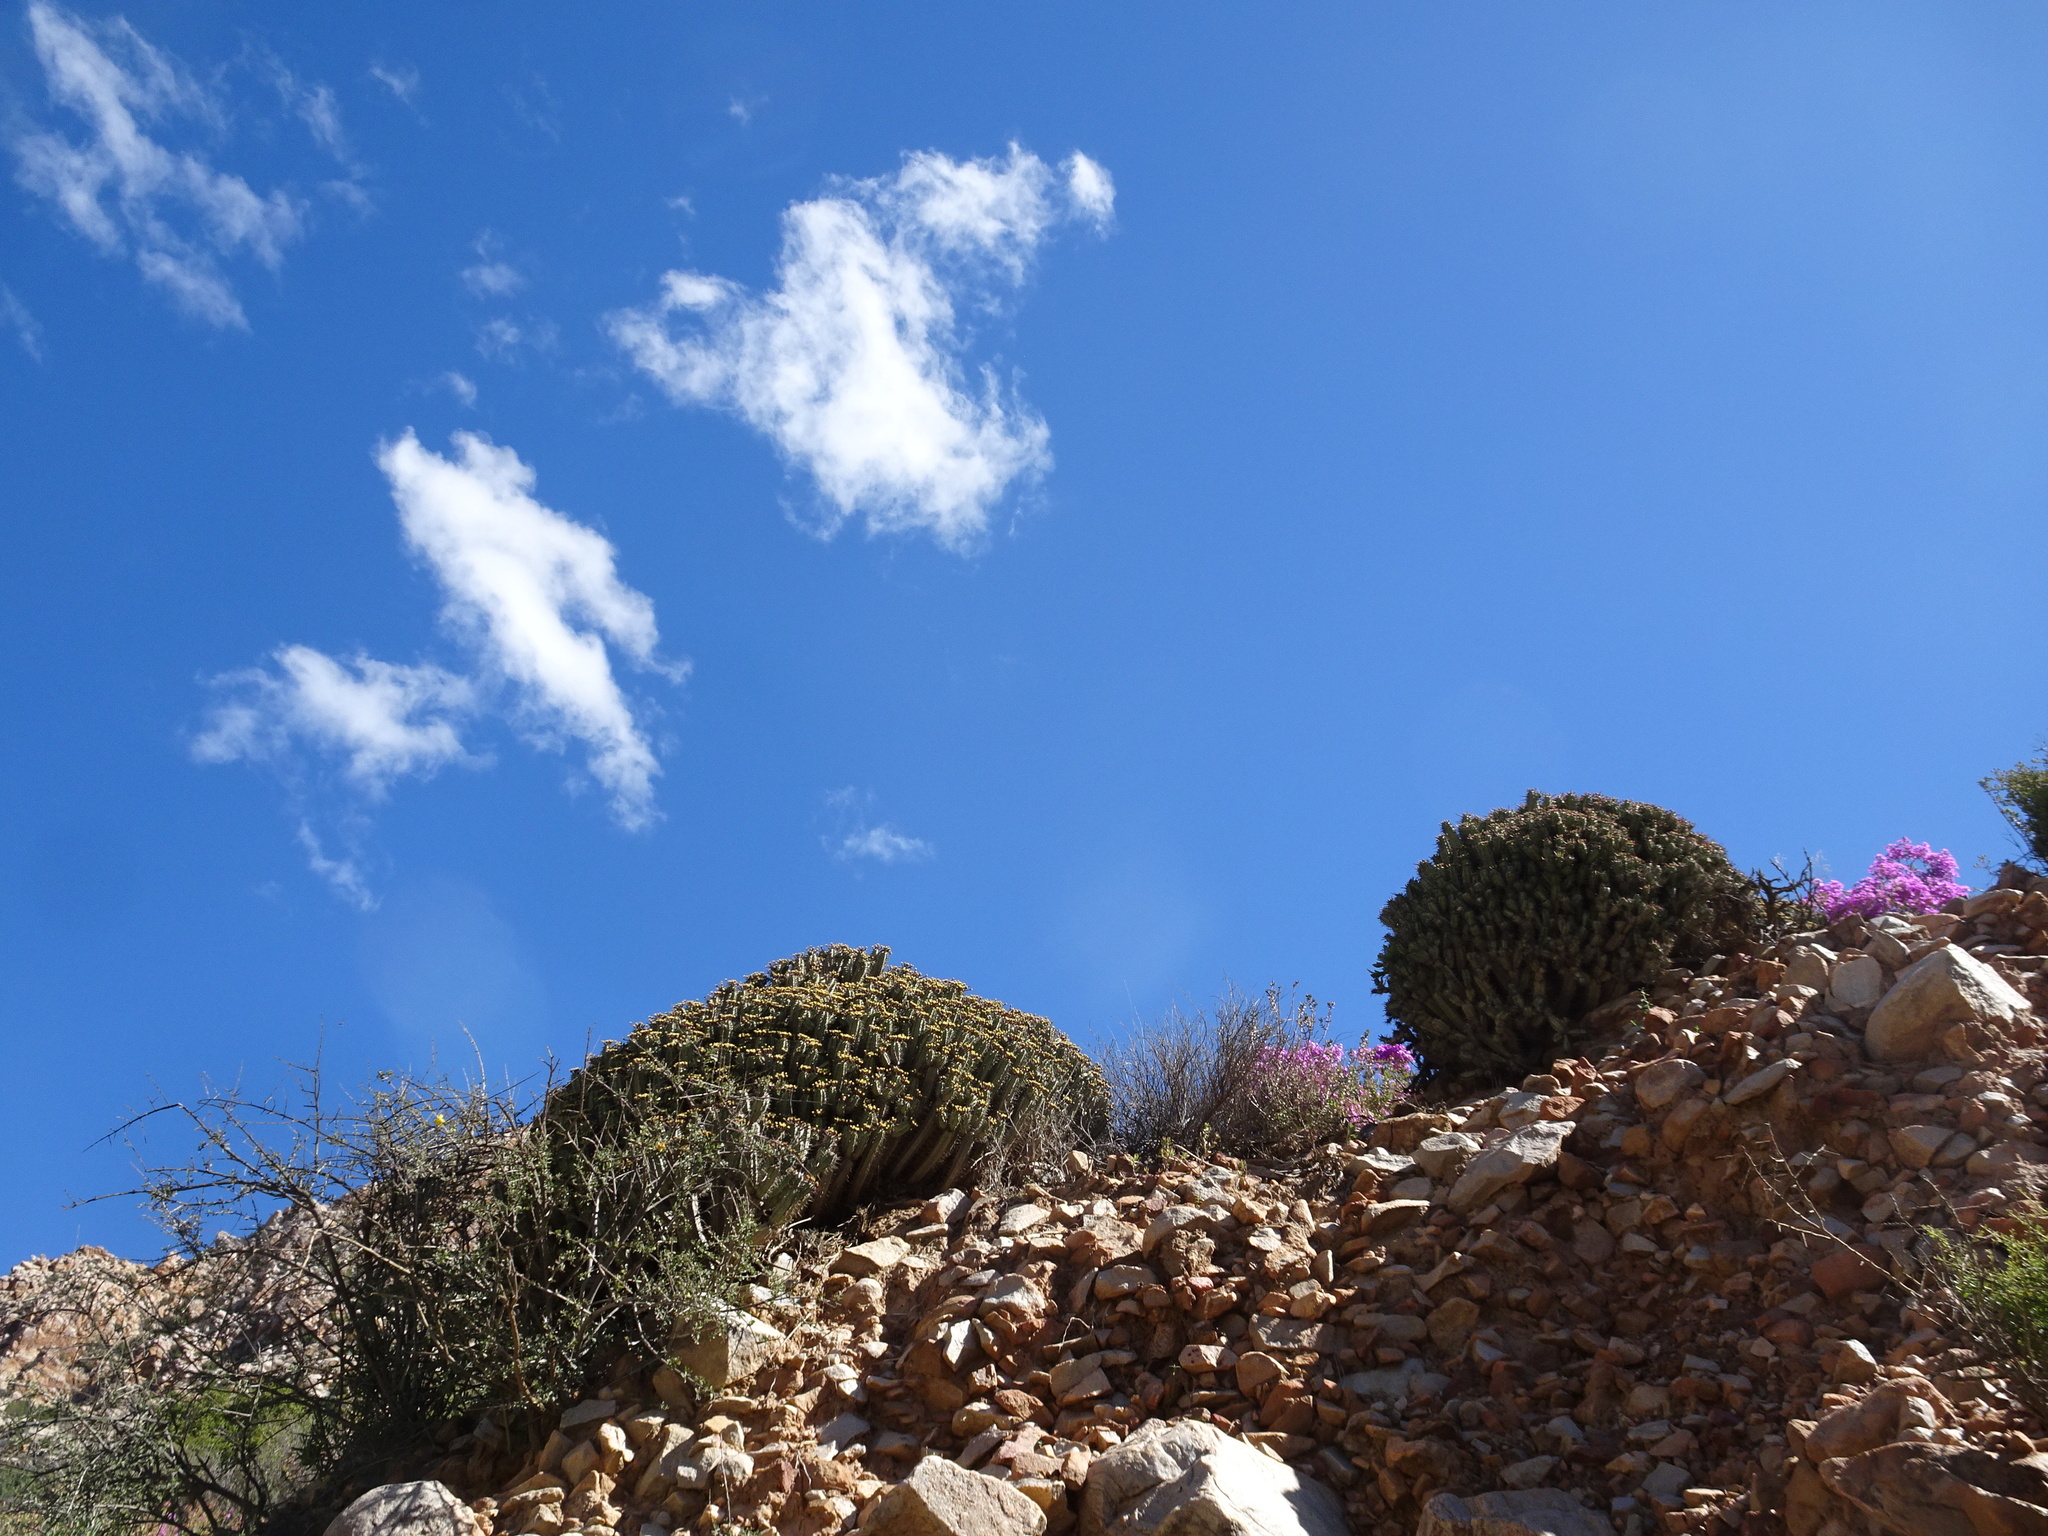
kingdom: Plantae
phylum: Tracheophyta
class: Magnoliopsida
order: Malpighiales
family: Euphorbiaceae
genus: Euphorbia
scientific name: Euphorbia heptagona
